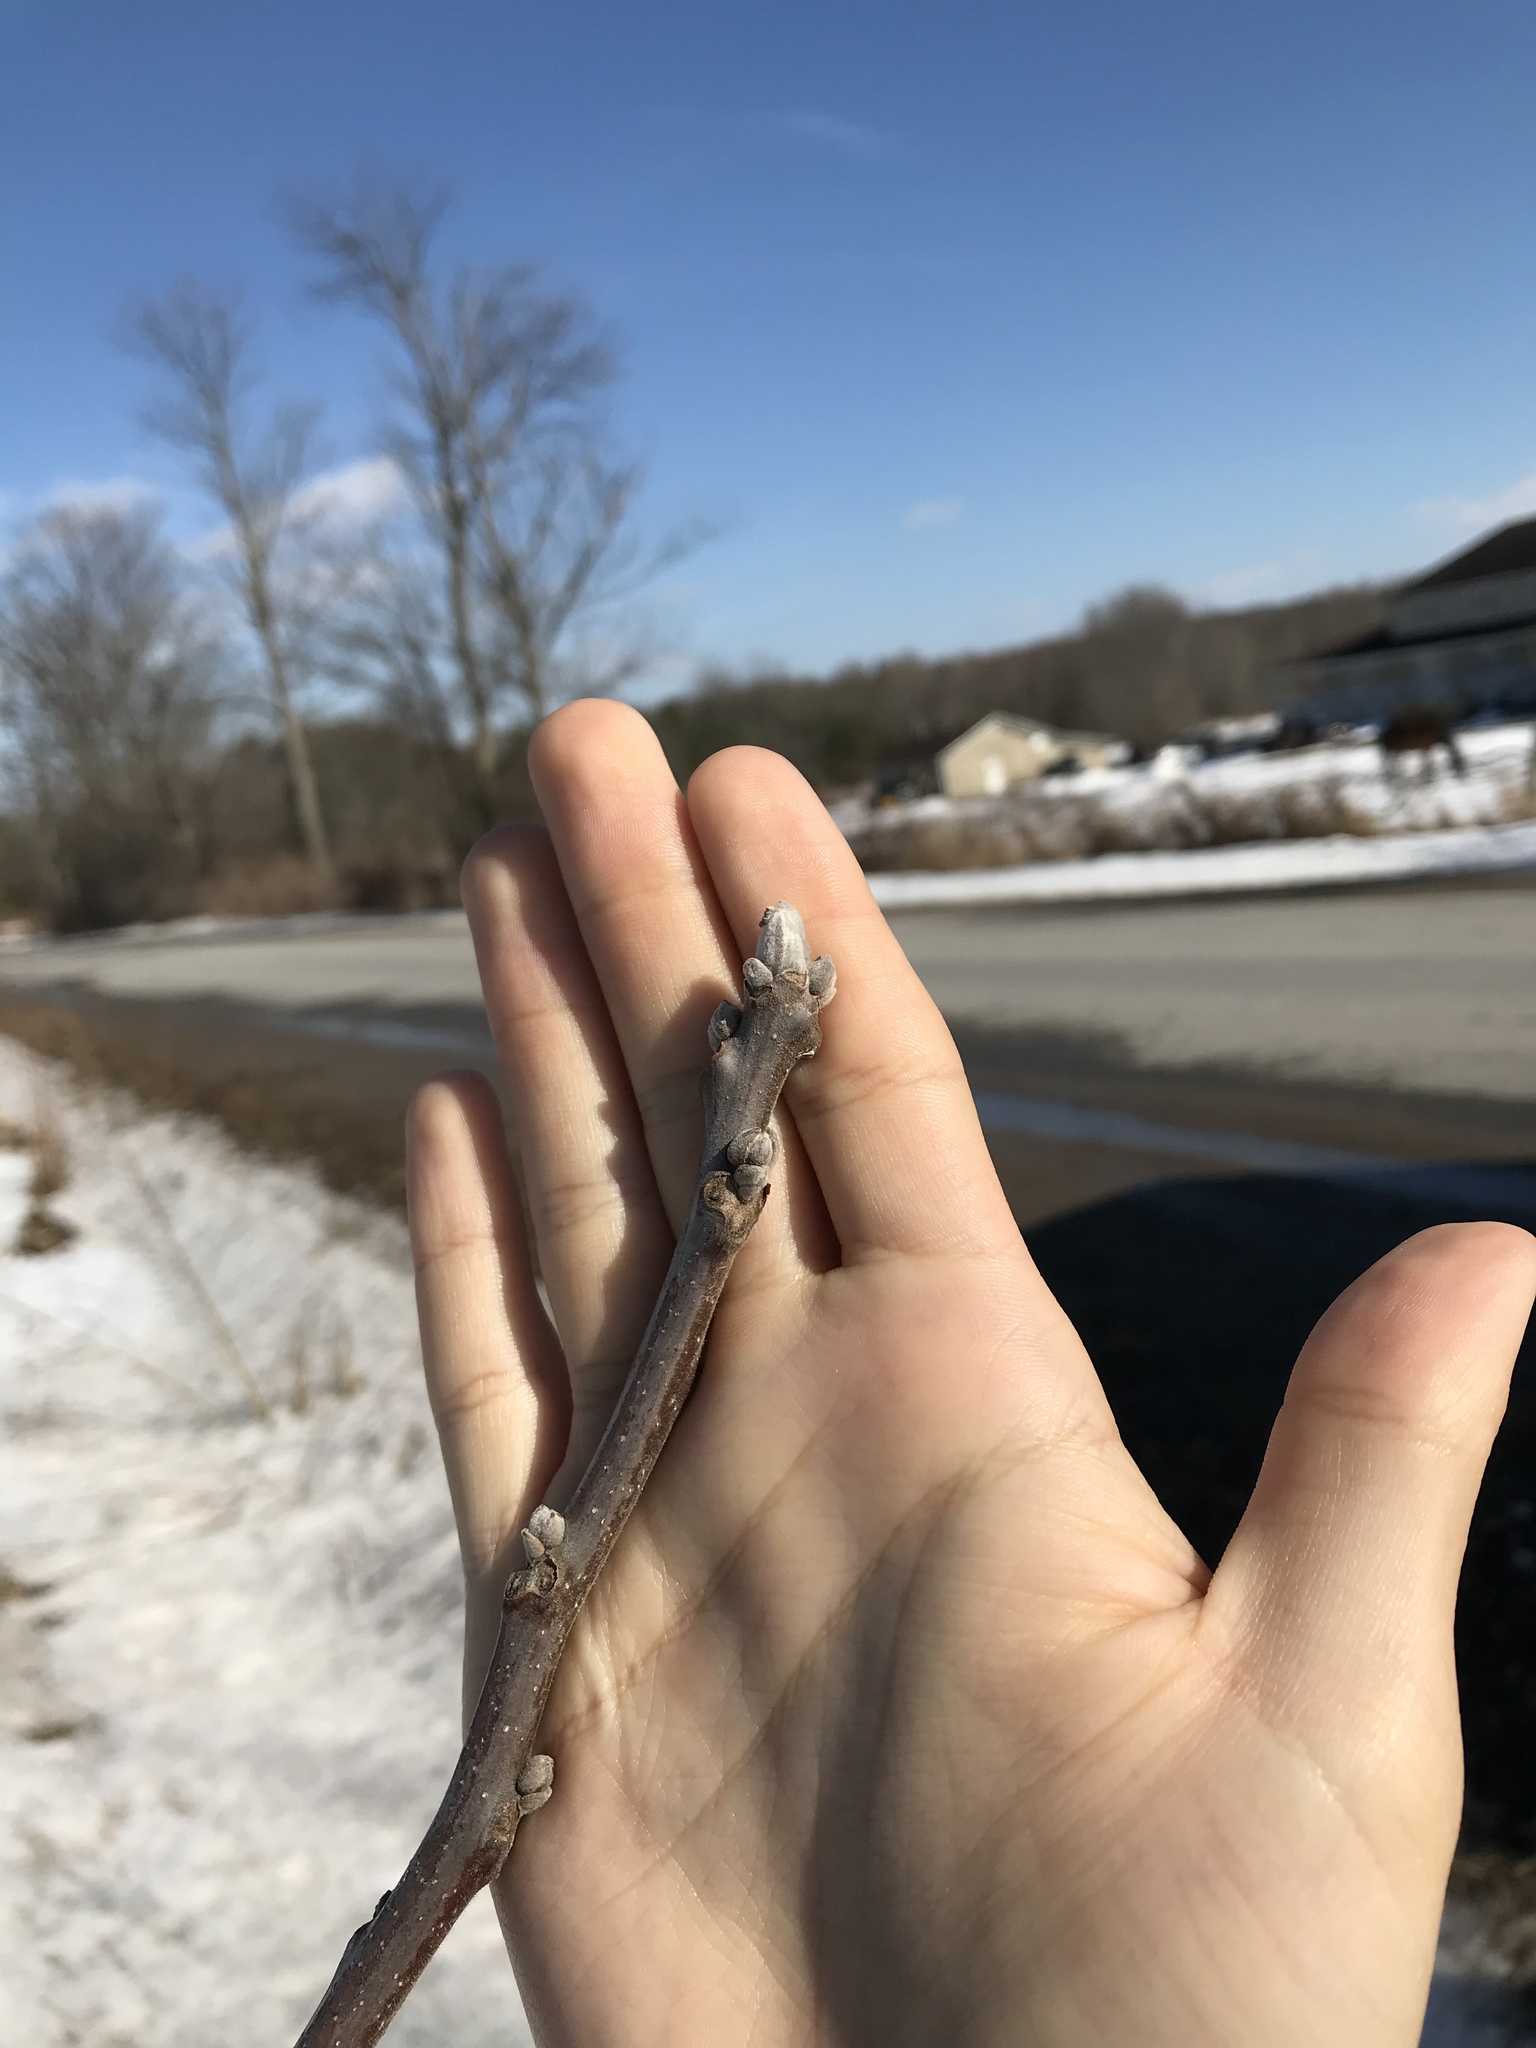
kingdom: Plantae
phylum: Tracheophyta
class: Magnoliopsida
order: Fagales
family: Juglandaceae
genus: Juglans
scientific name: Juglans nigra
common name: Black walnut
